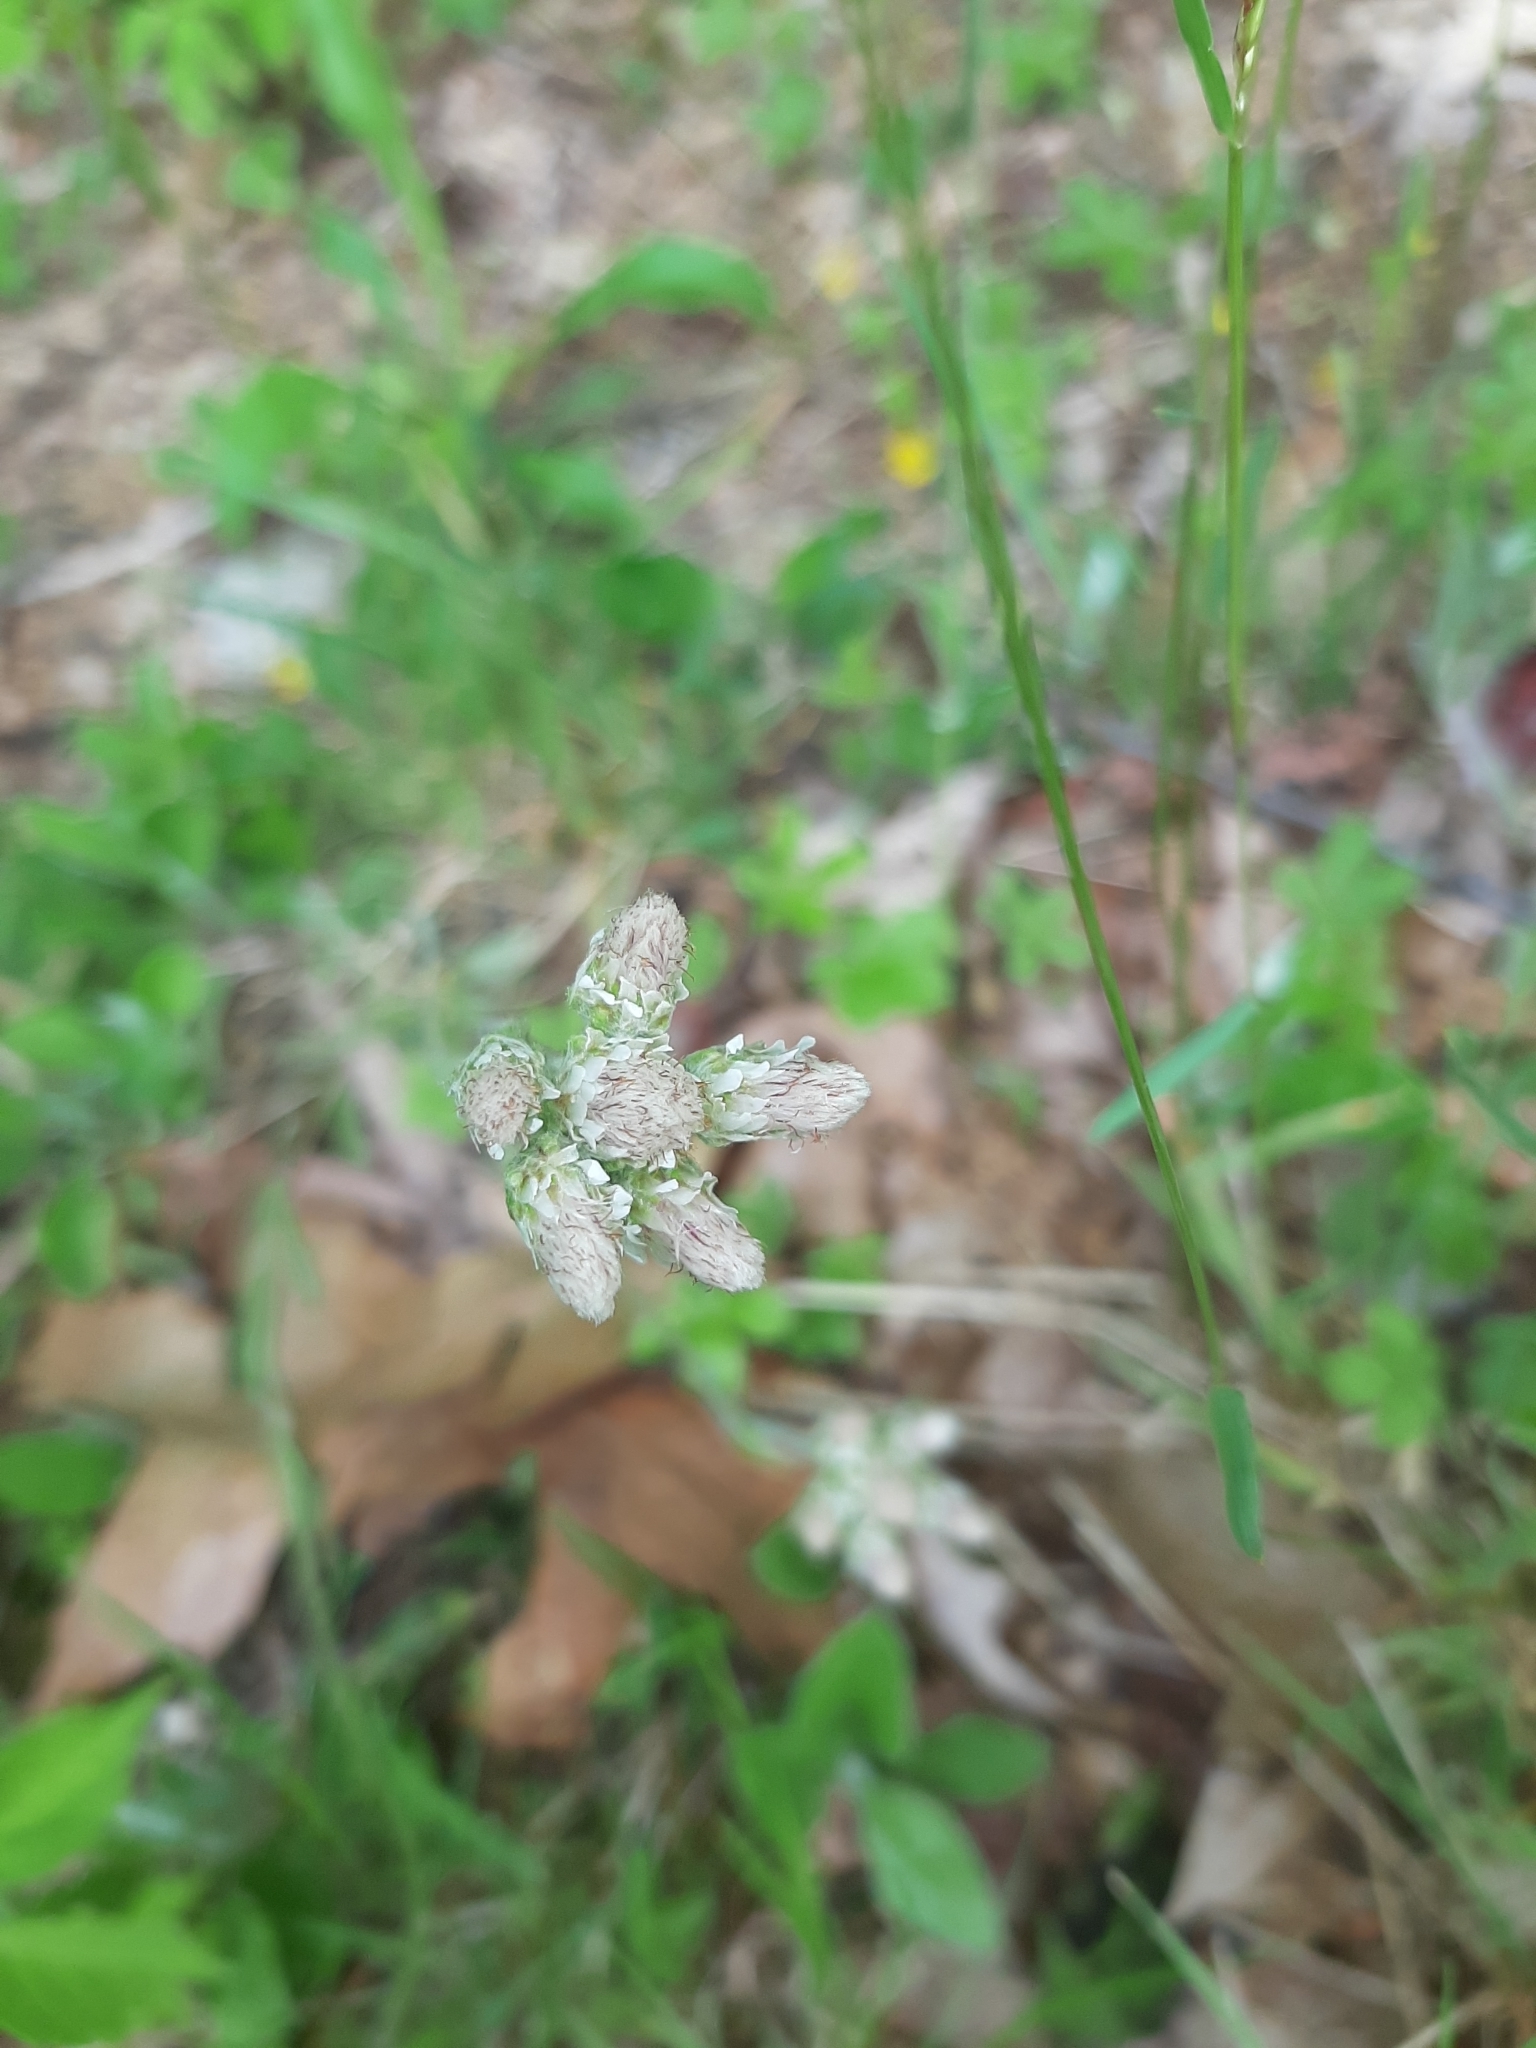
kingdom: Plantae
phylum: Tracheophyta
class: Magnoliopsida
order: Asterales
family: Asteraceae
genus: Antennaria
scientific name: Antennaria neglecta
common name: Field pussytoes
